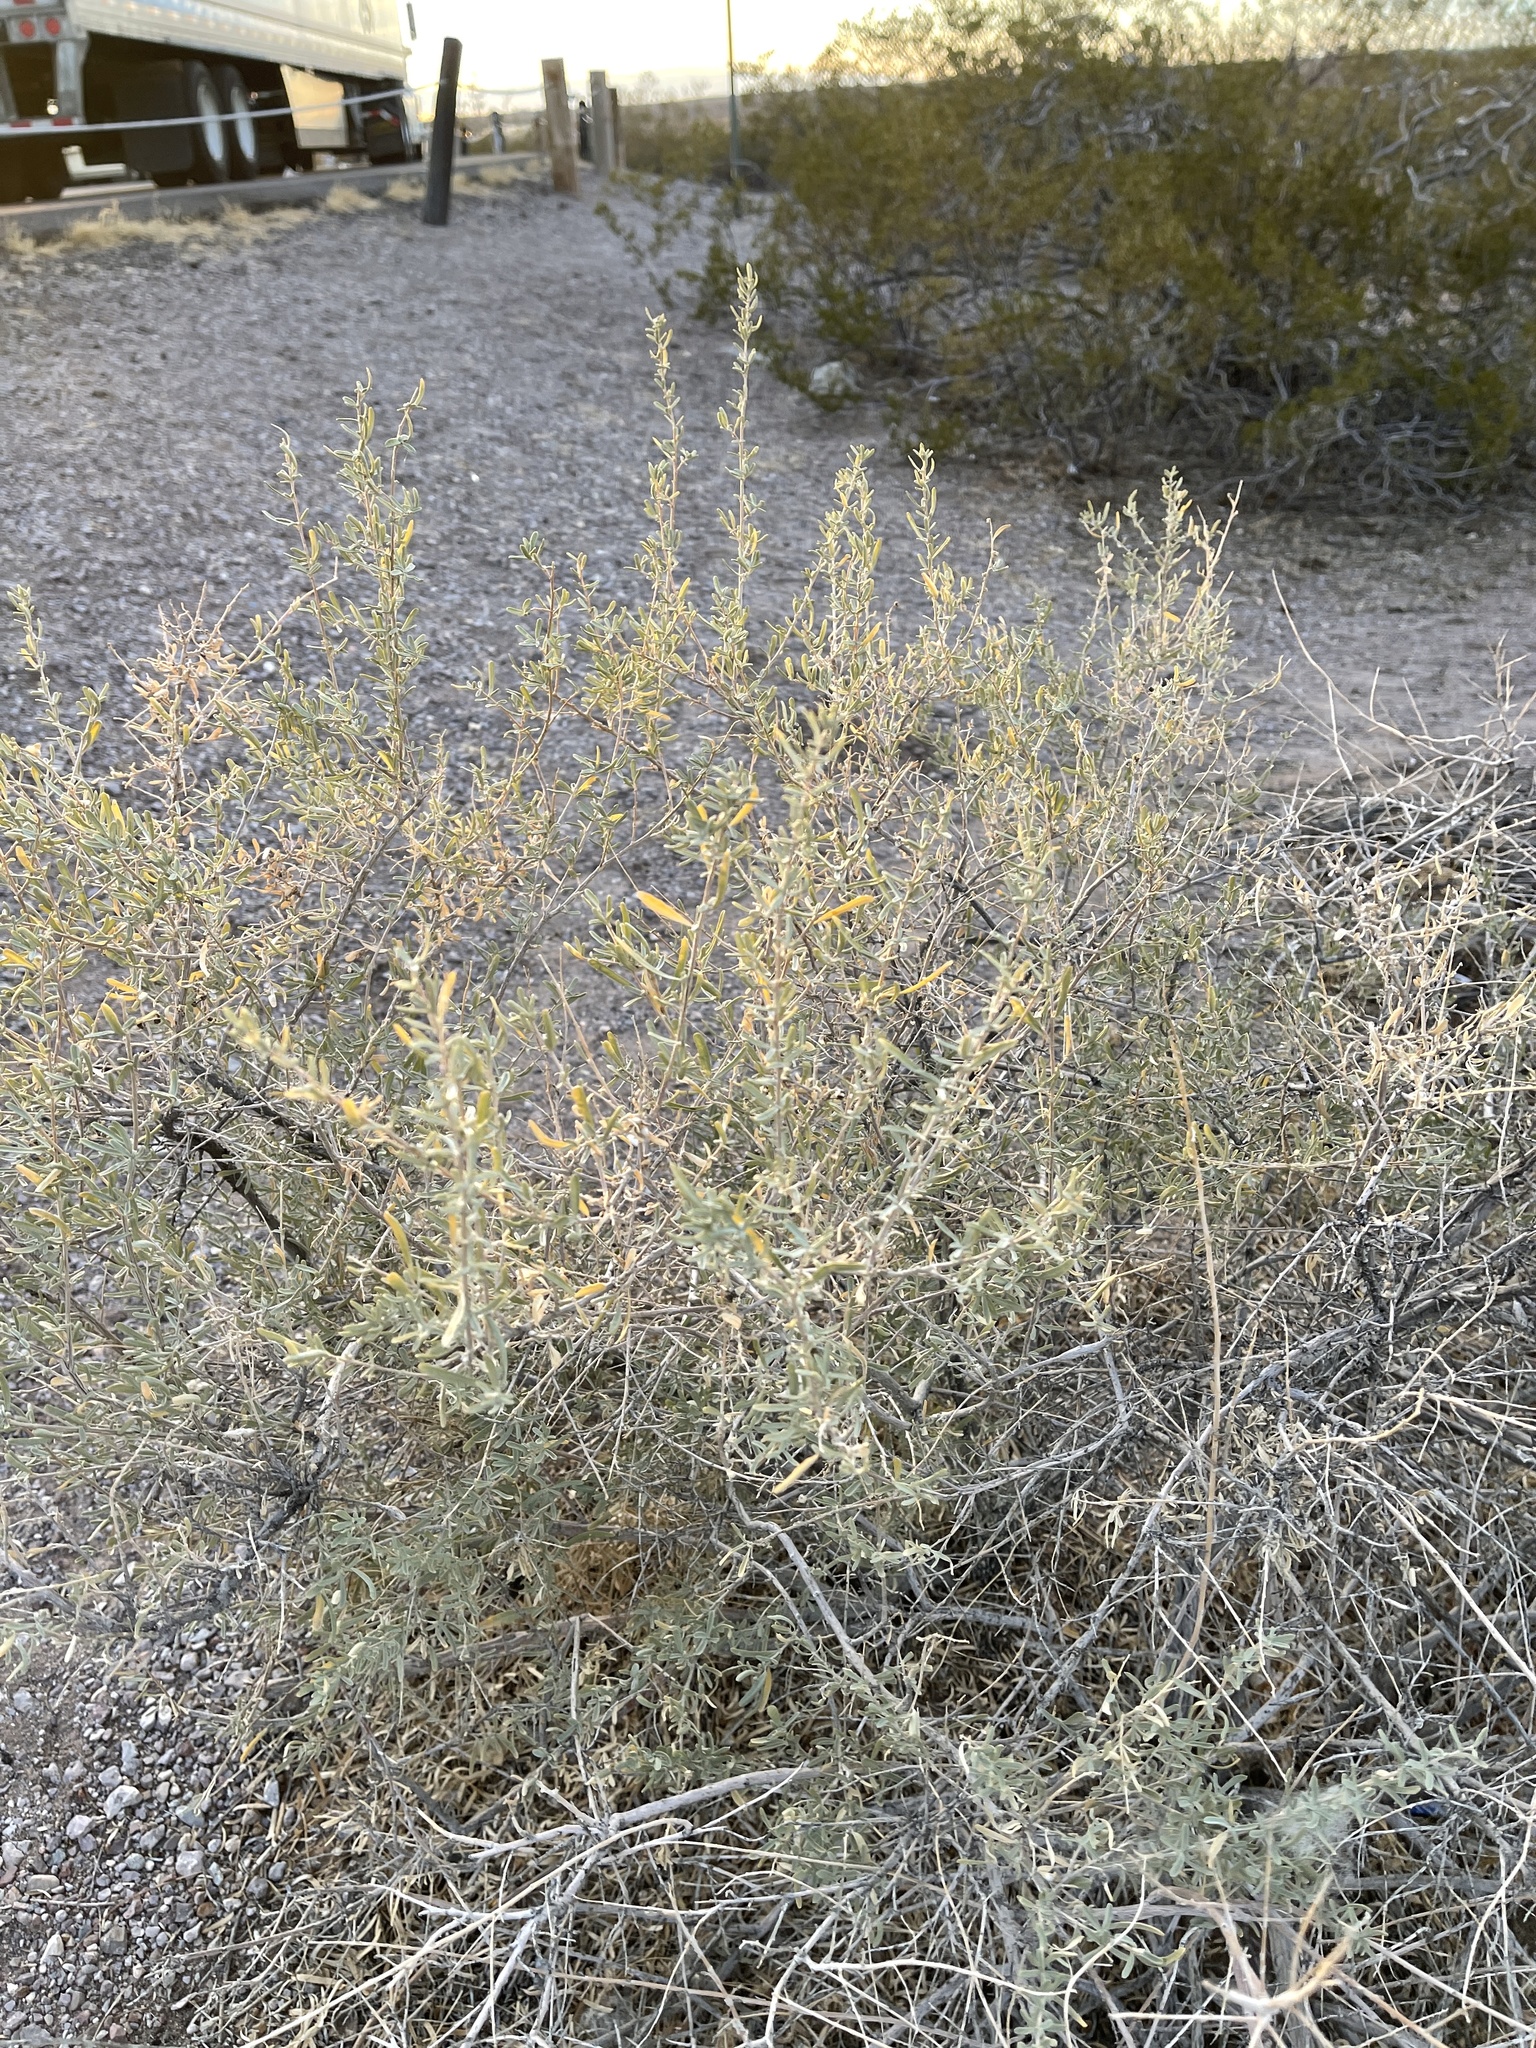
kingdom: Plantae
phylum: Tracheophyta
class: Magnoliopsida
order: Caryophyllales
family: Amaranthaceae
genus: Atriplex
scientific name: Atriplex canescens
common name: Four-wing saltbush
